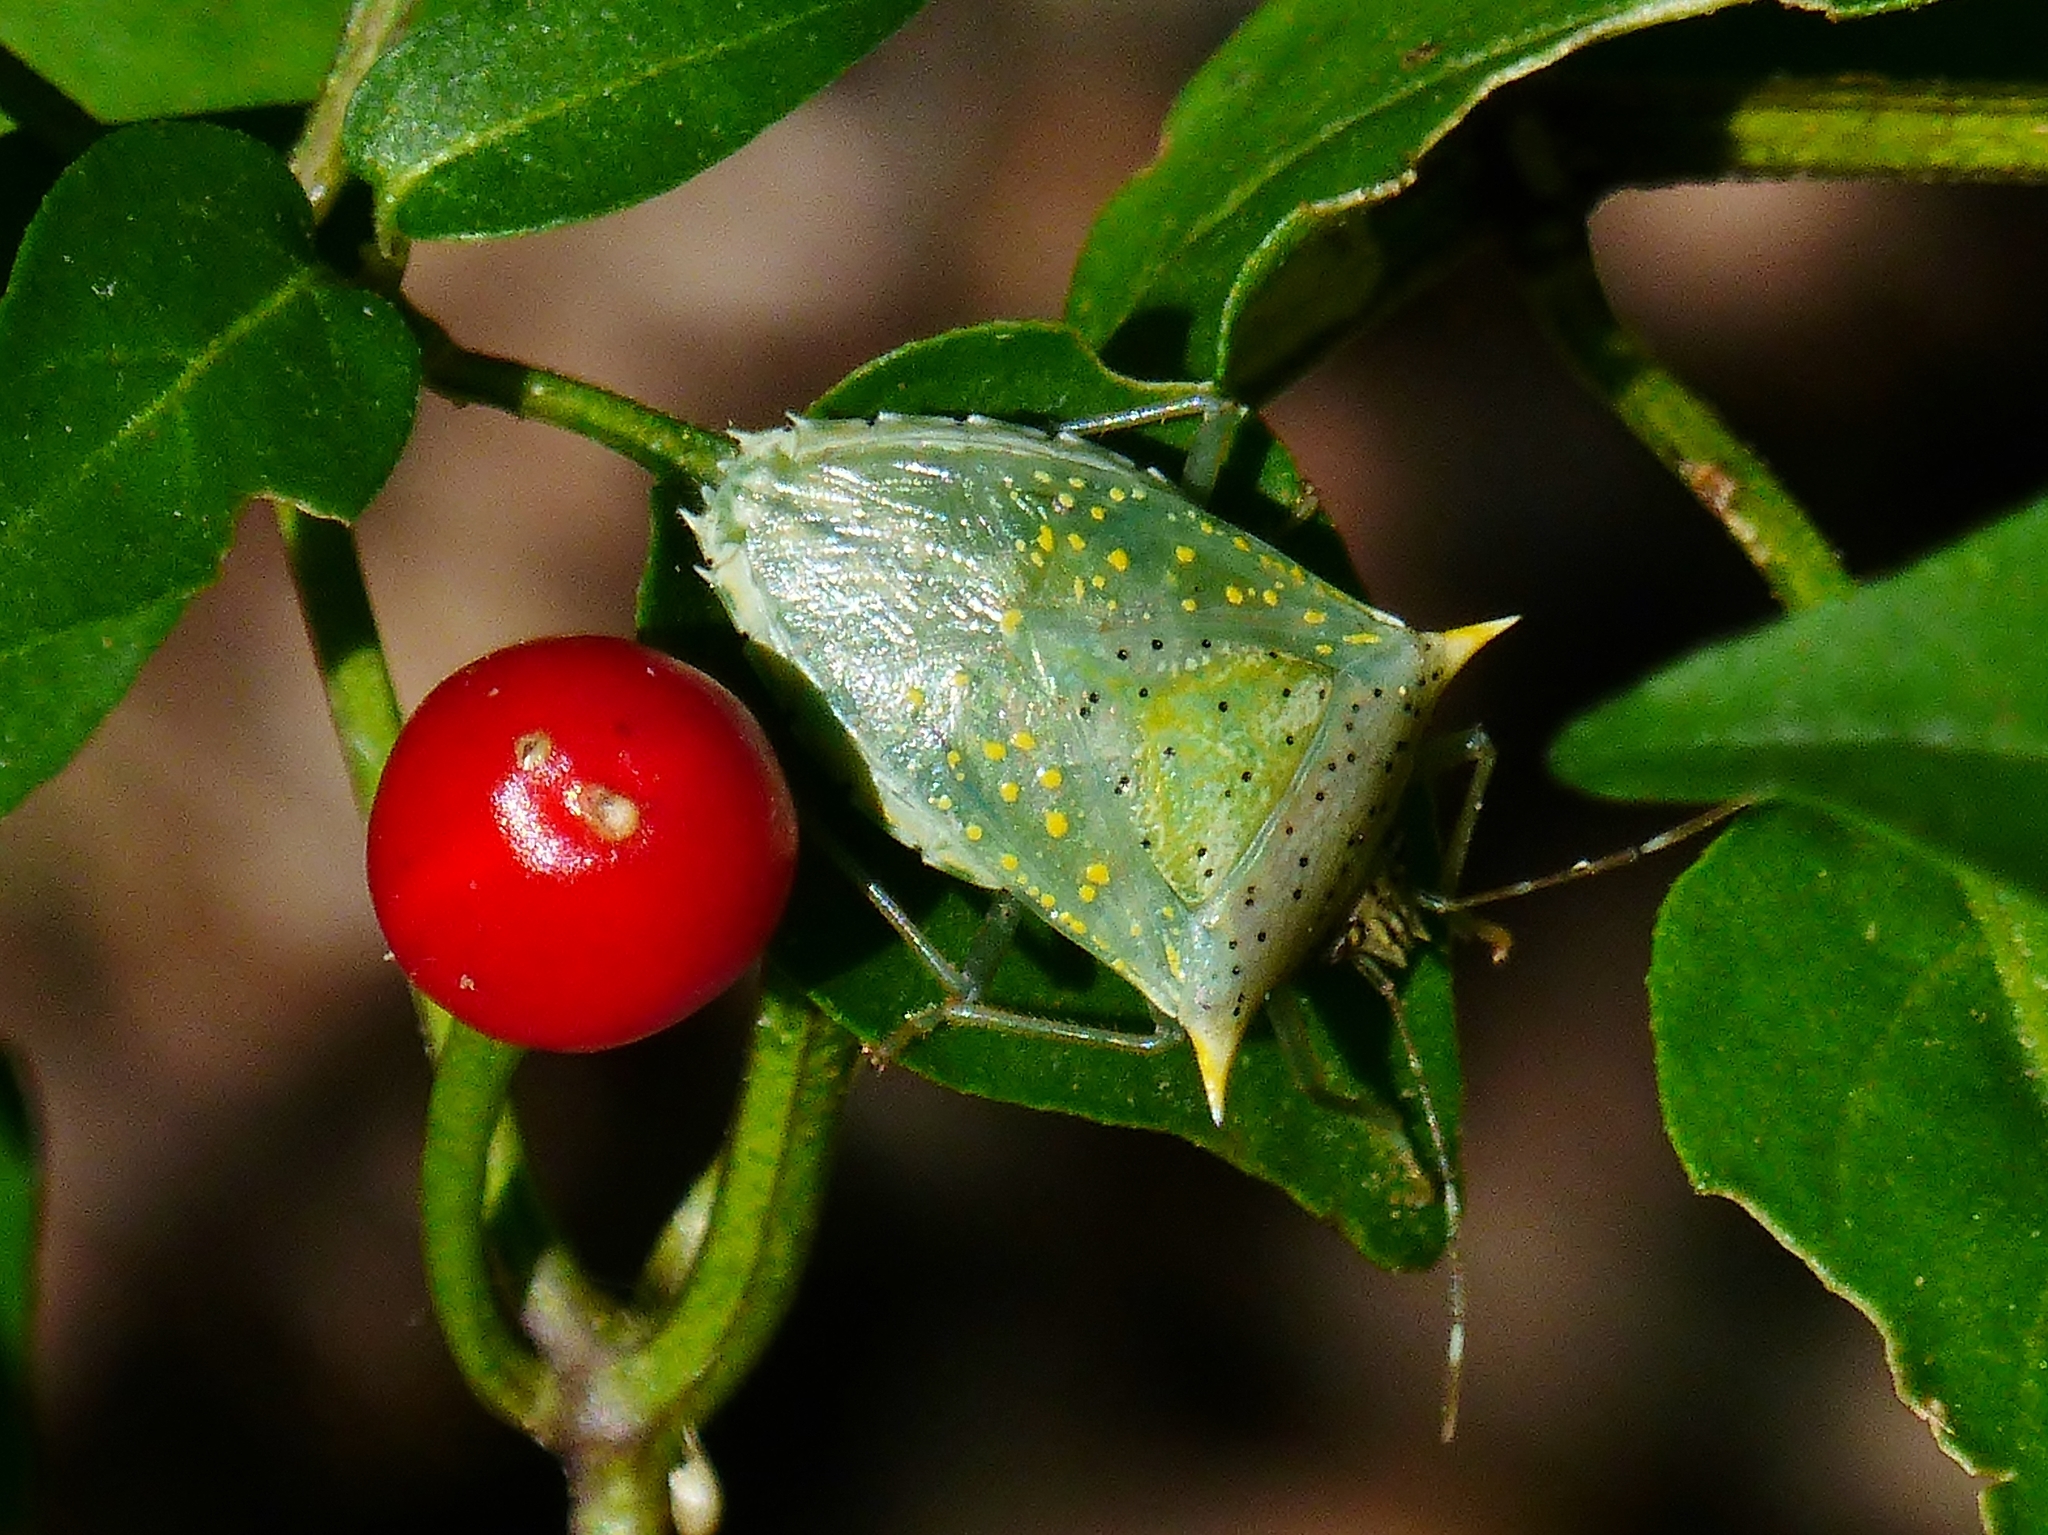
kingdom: Animalia
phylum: Arthropoda
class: Insecta
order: Hemiptera
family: Pentatomidae
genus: Arvelius
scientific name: Arvelius albopunctatus
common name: Tomato stink bug
